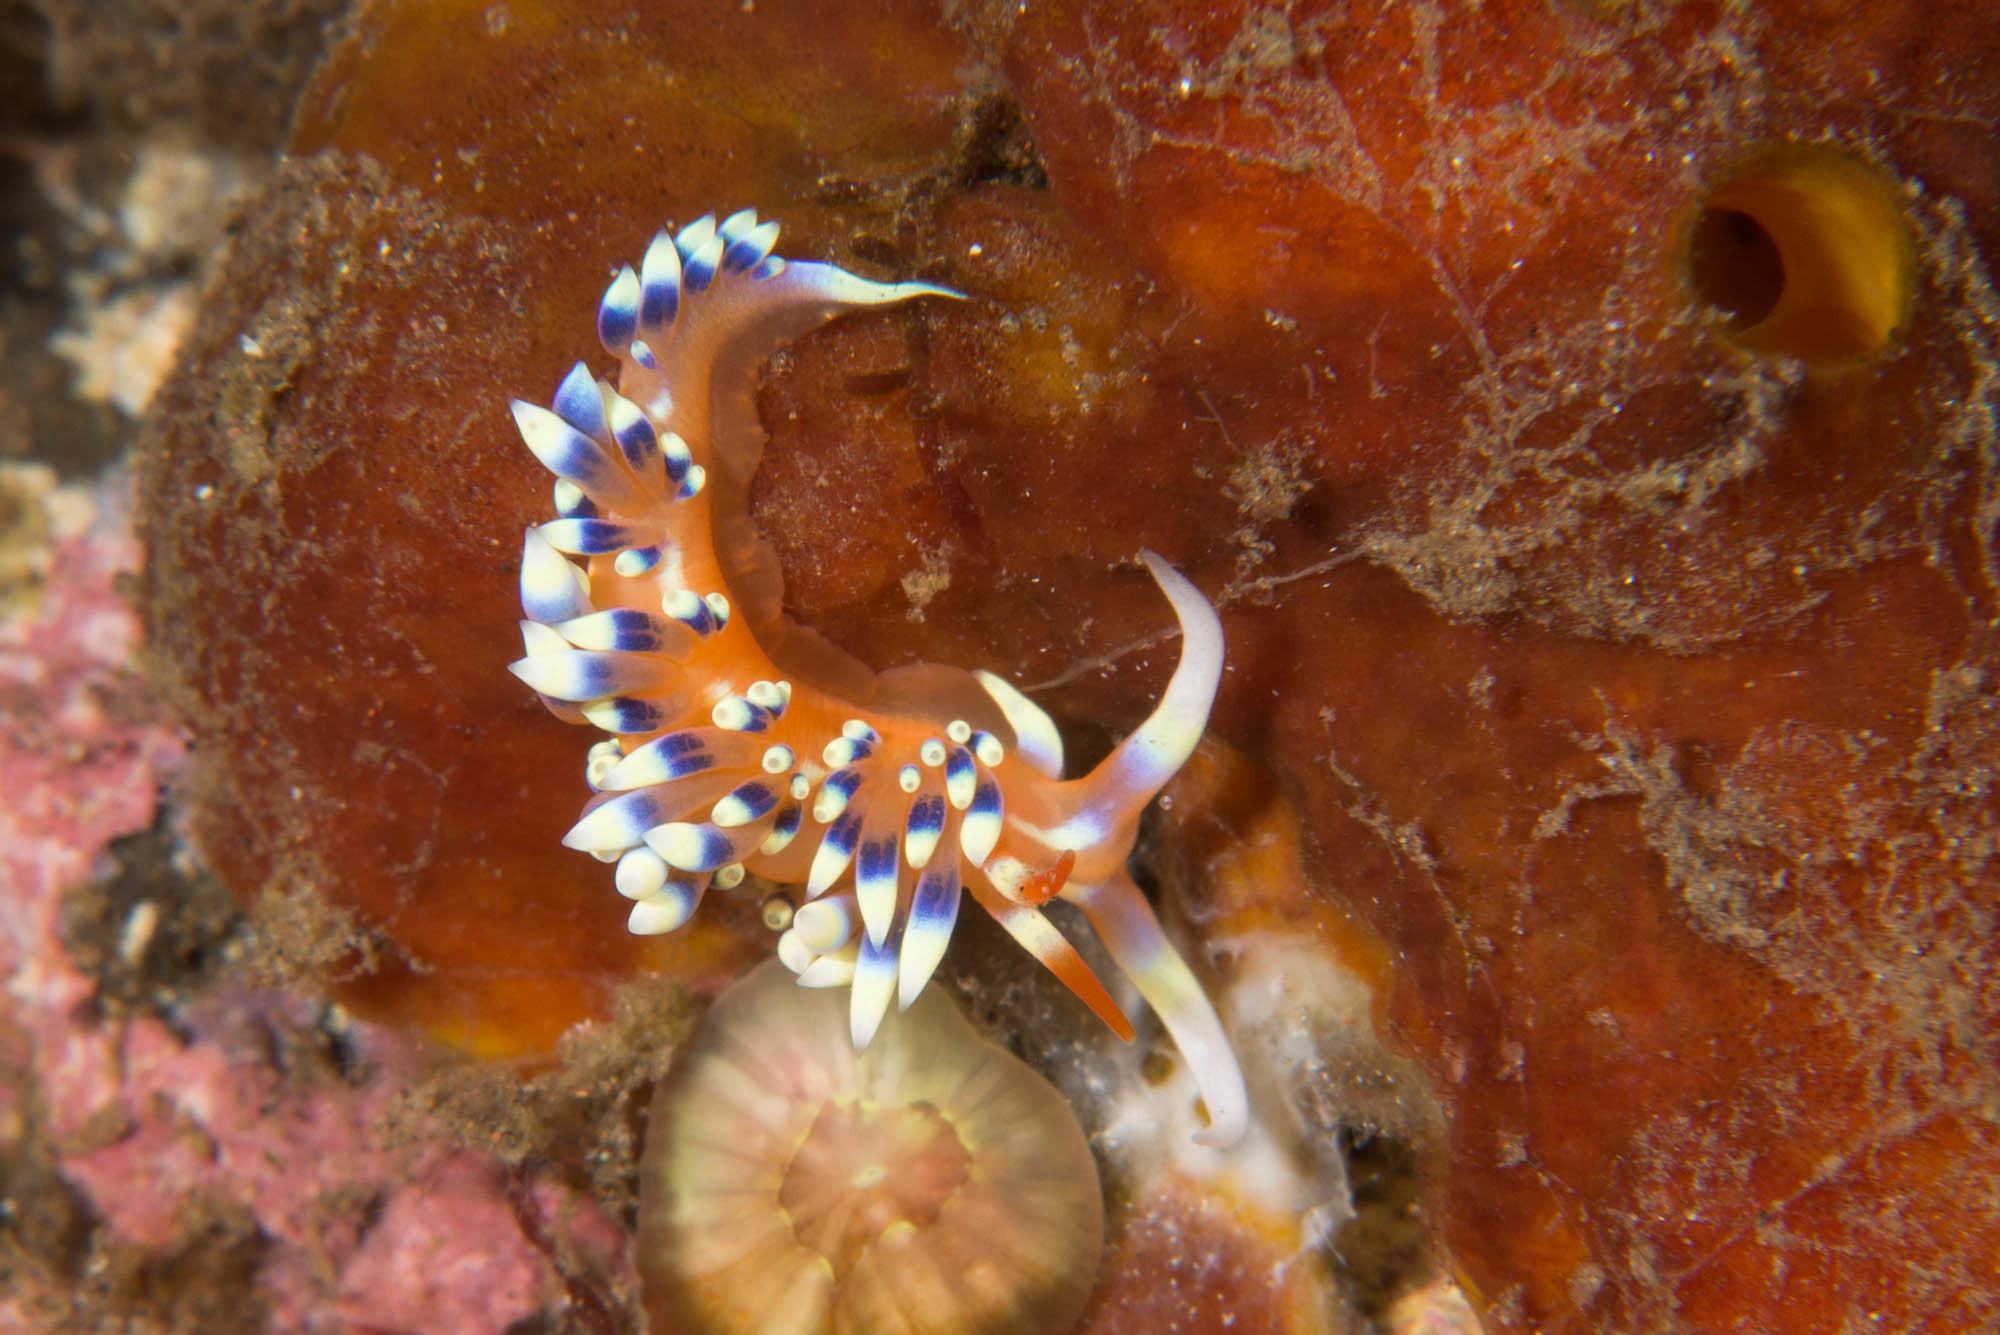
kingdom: Animalia
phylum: Mollusca
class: Gastropoda
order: Nudibranchia
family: Facelinidae
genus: Caloria
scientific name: Caloria indica
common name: Sea slug
